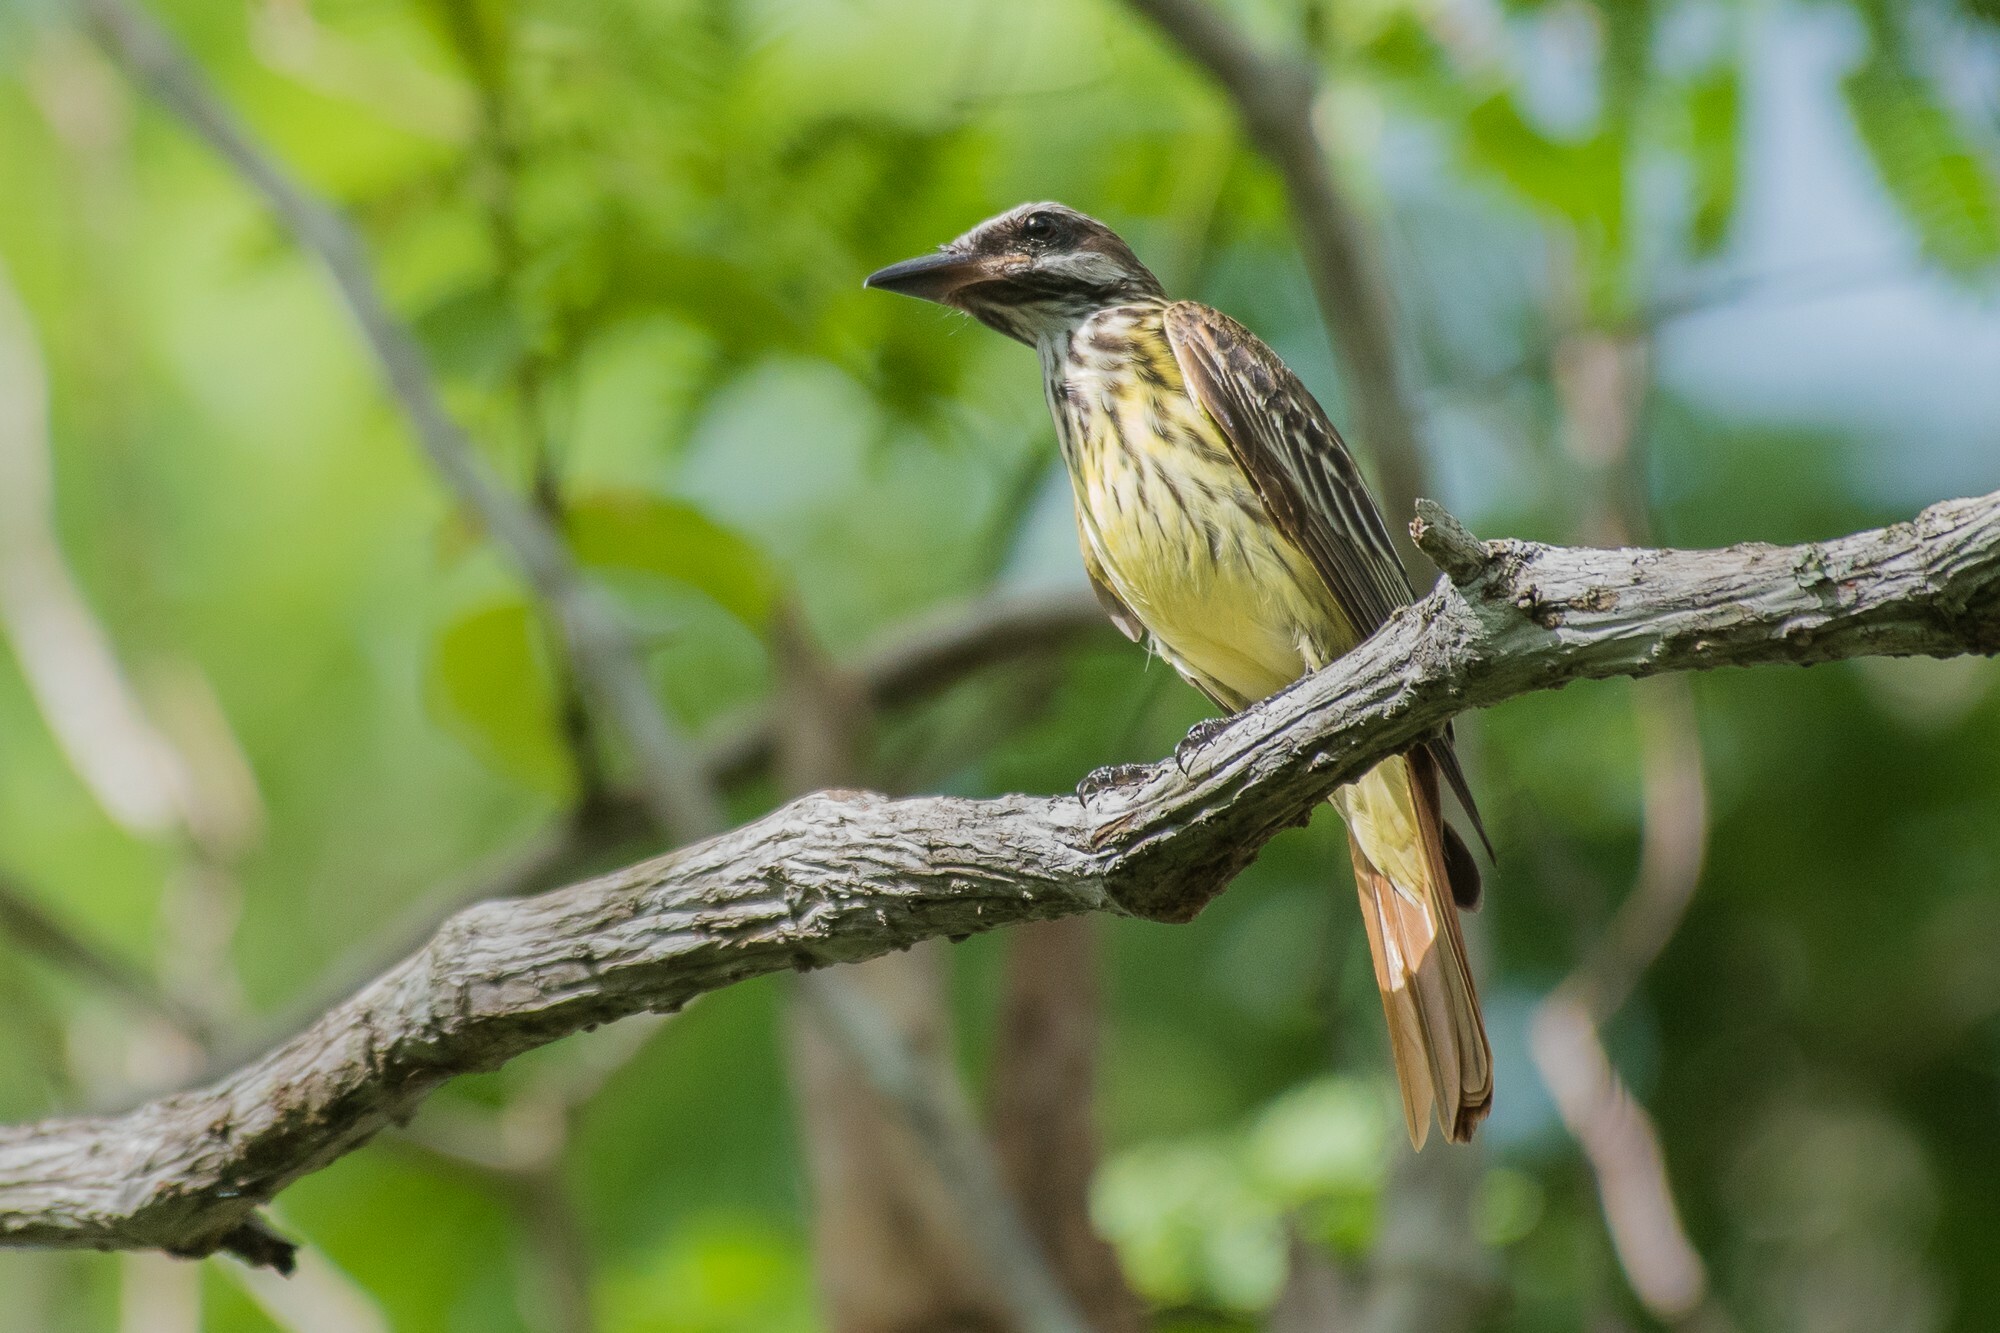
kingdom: Animalia
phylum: Chordata
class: Aves
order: Passeriformes
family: Tyrannidae
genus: Myiodynastes
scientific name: Myiodynastes luteiventris
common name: Sulphur-bellied flycatcher
